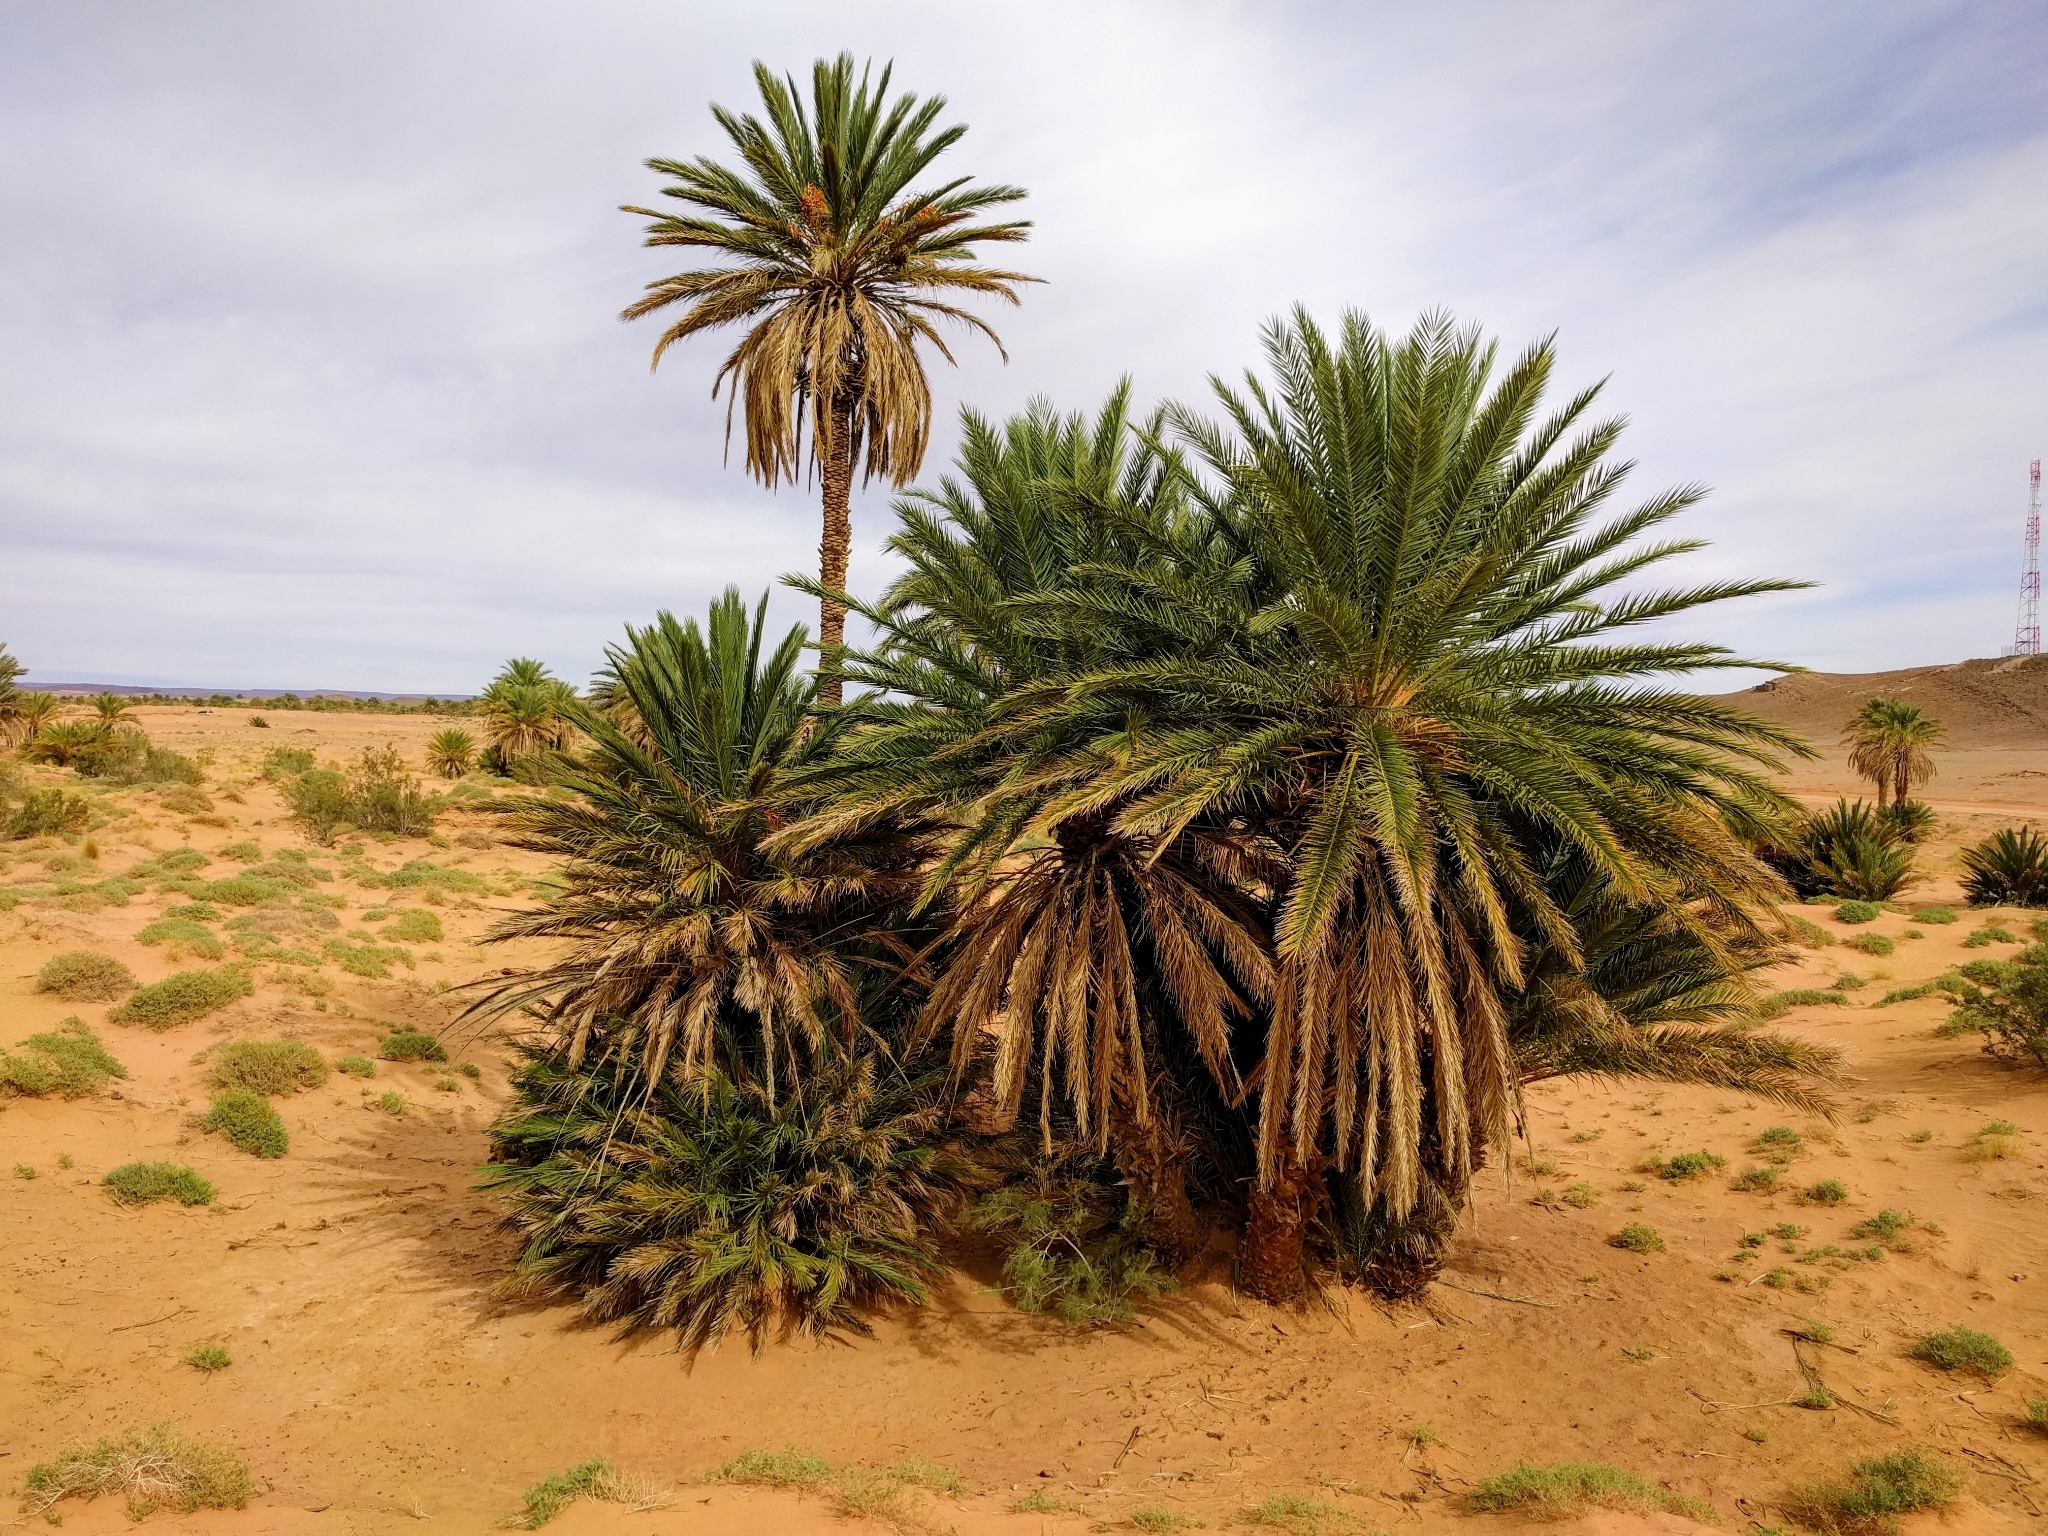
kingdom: Plantae
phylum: Tracheophyta
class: Liliopsida
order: Arecales
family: Arecaceae
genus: Phoenix
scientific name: Phoenix dactylifera
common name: Date palm
